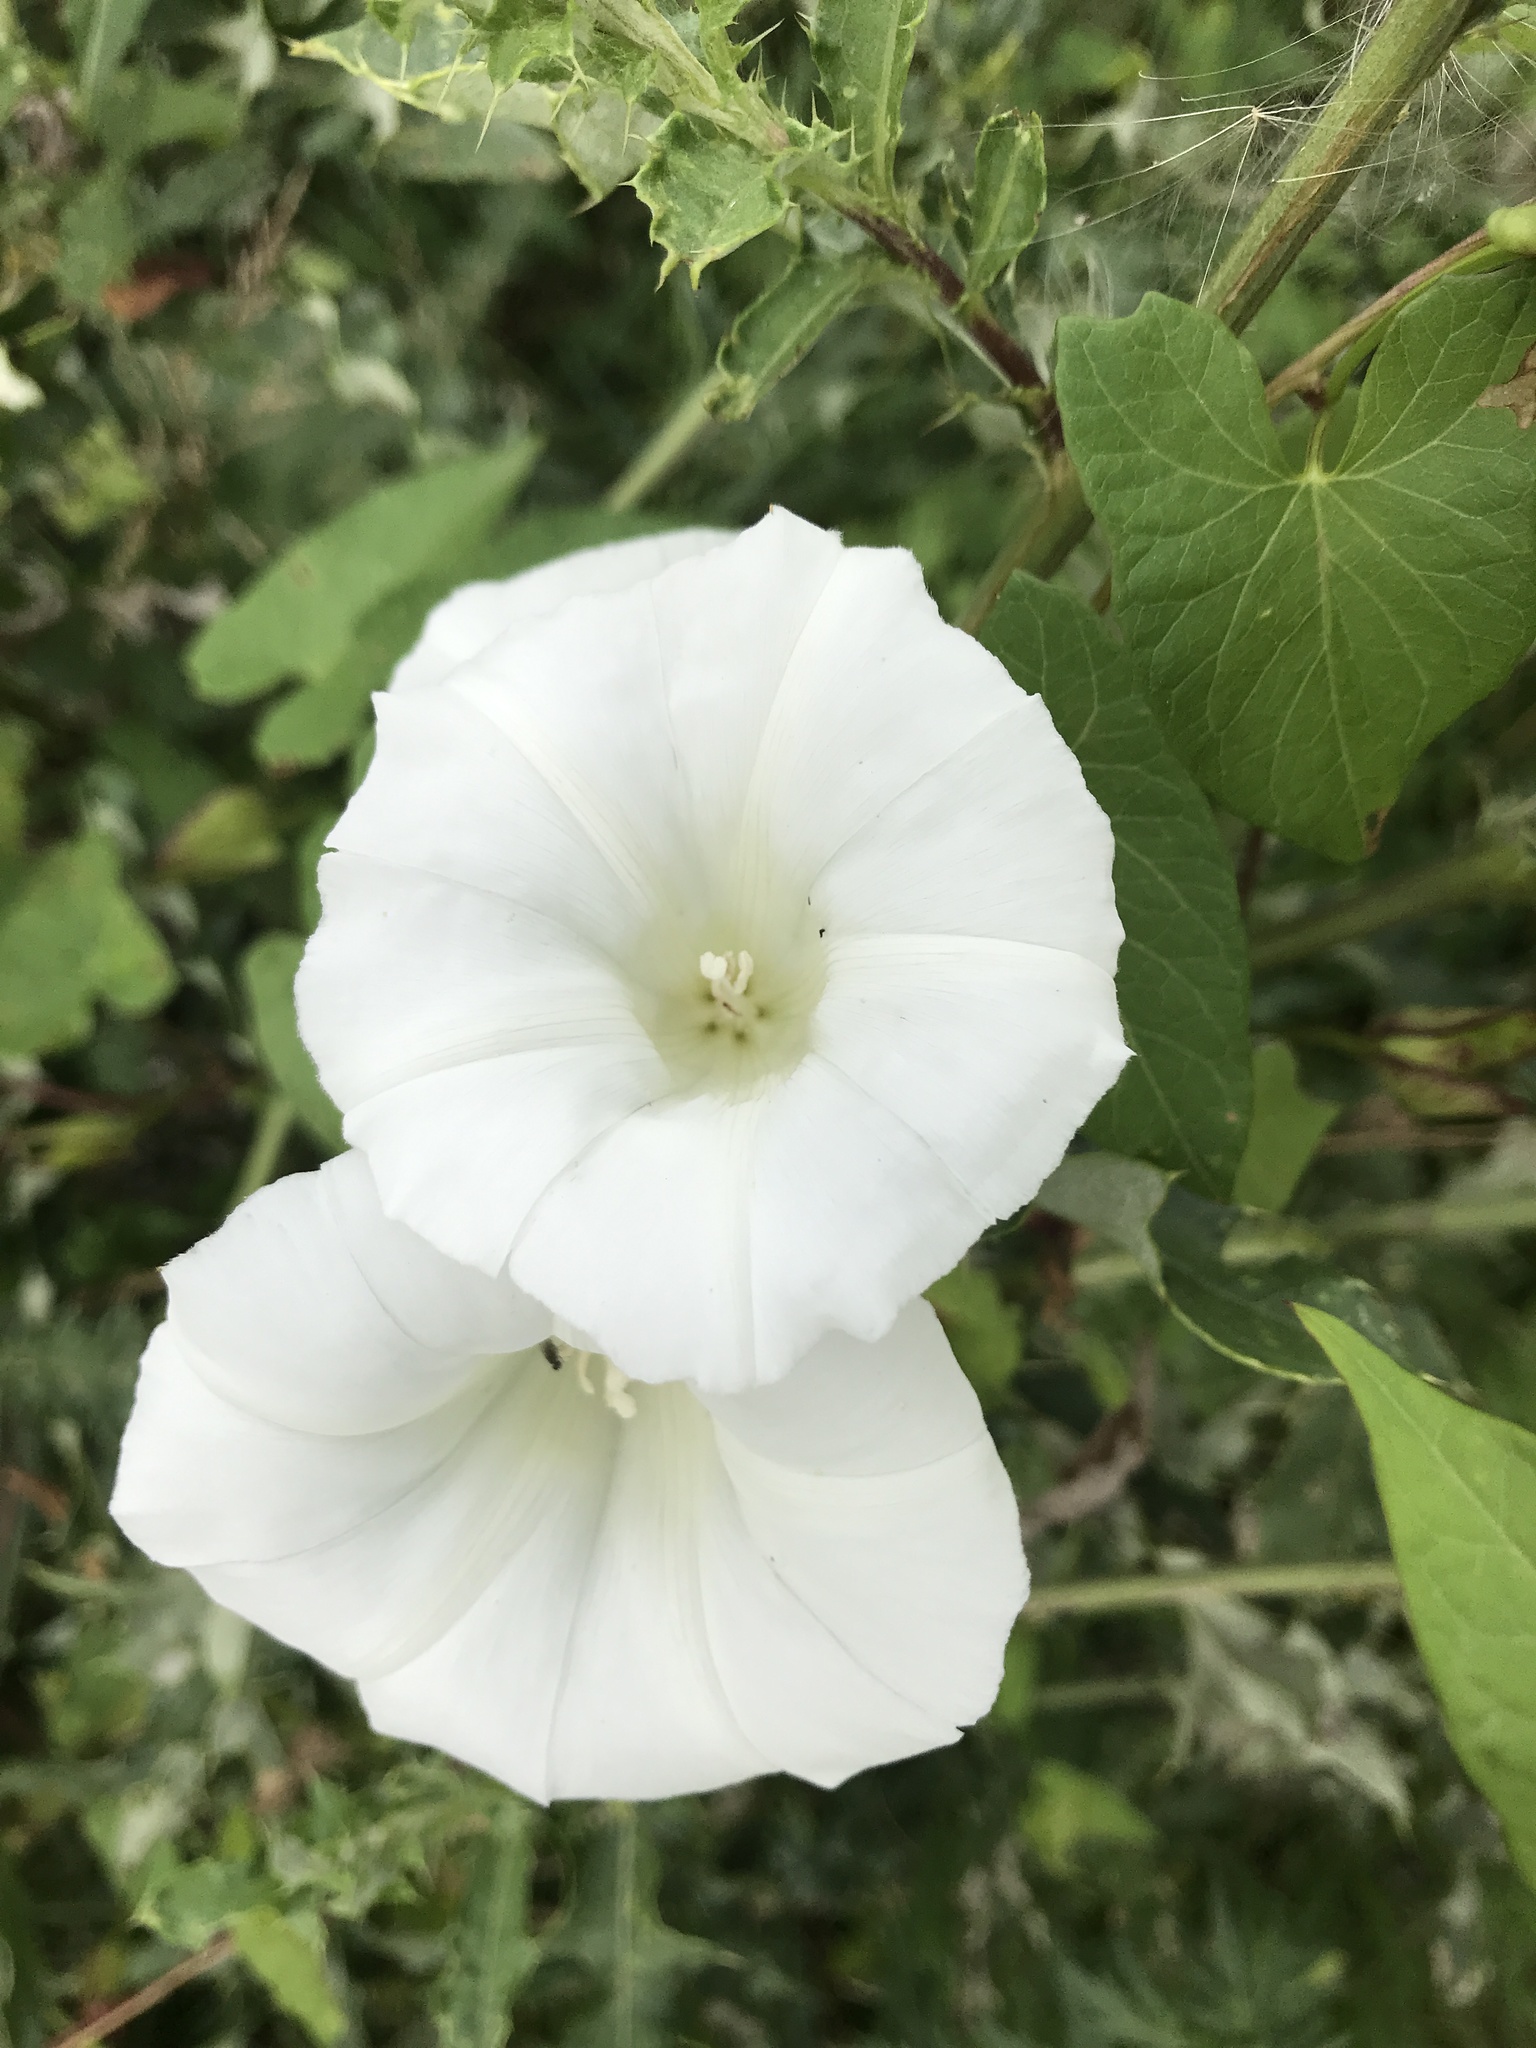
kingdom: Plantae
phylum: Tracheophyta
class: Magnoliopsida
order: Solanales
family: Convolvulaceae
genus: Calystegia
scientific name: Calystegia
